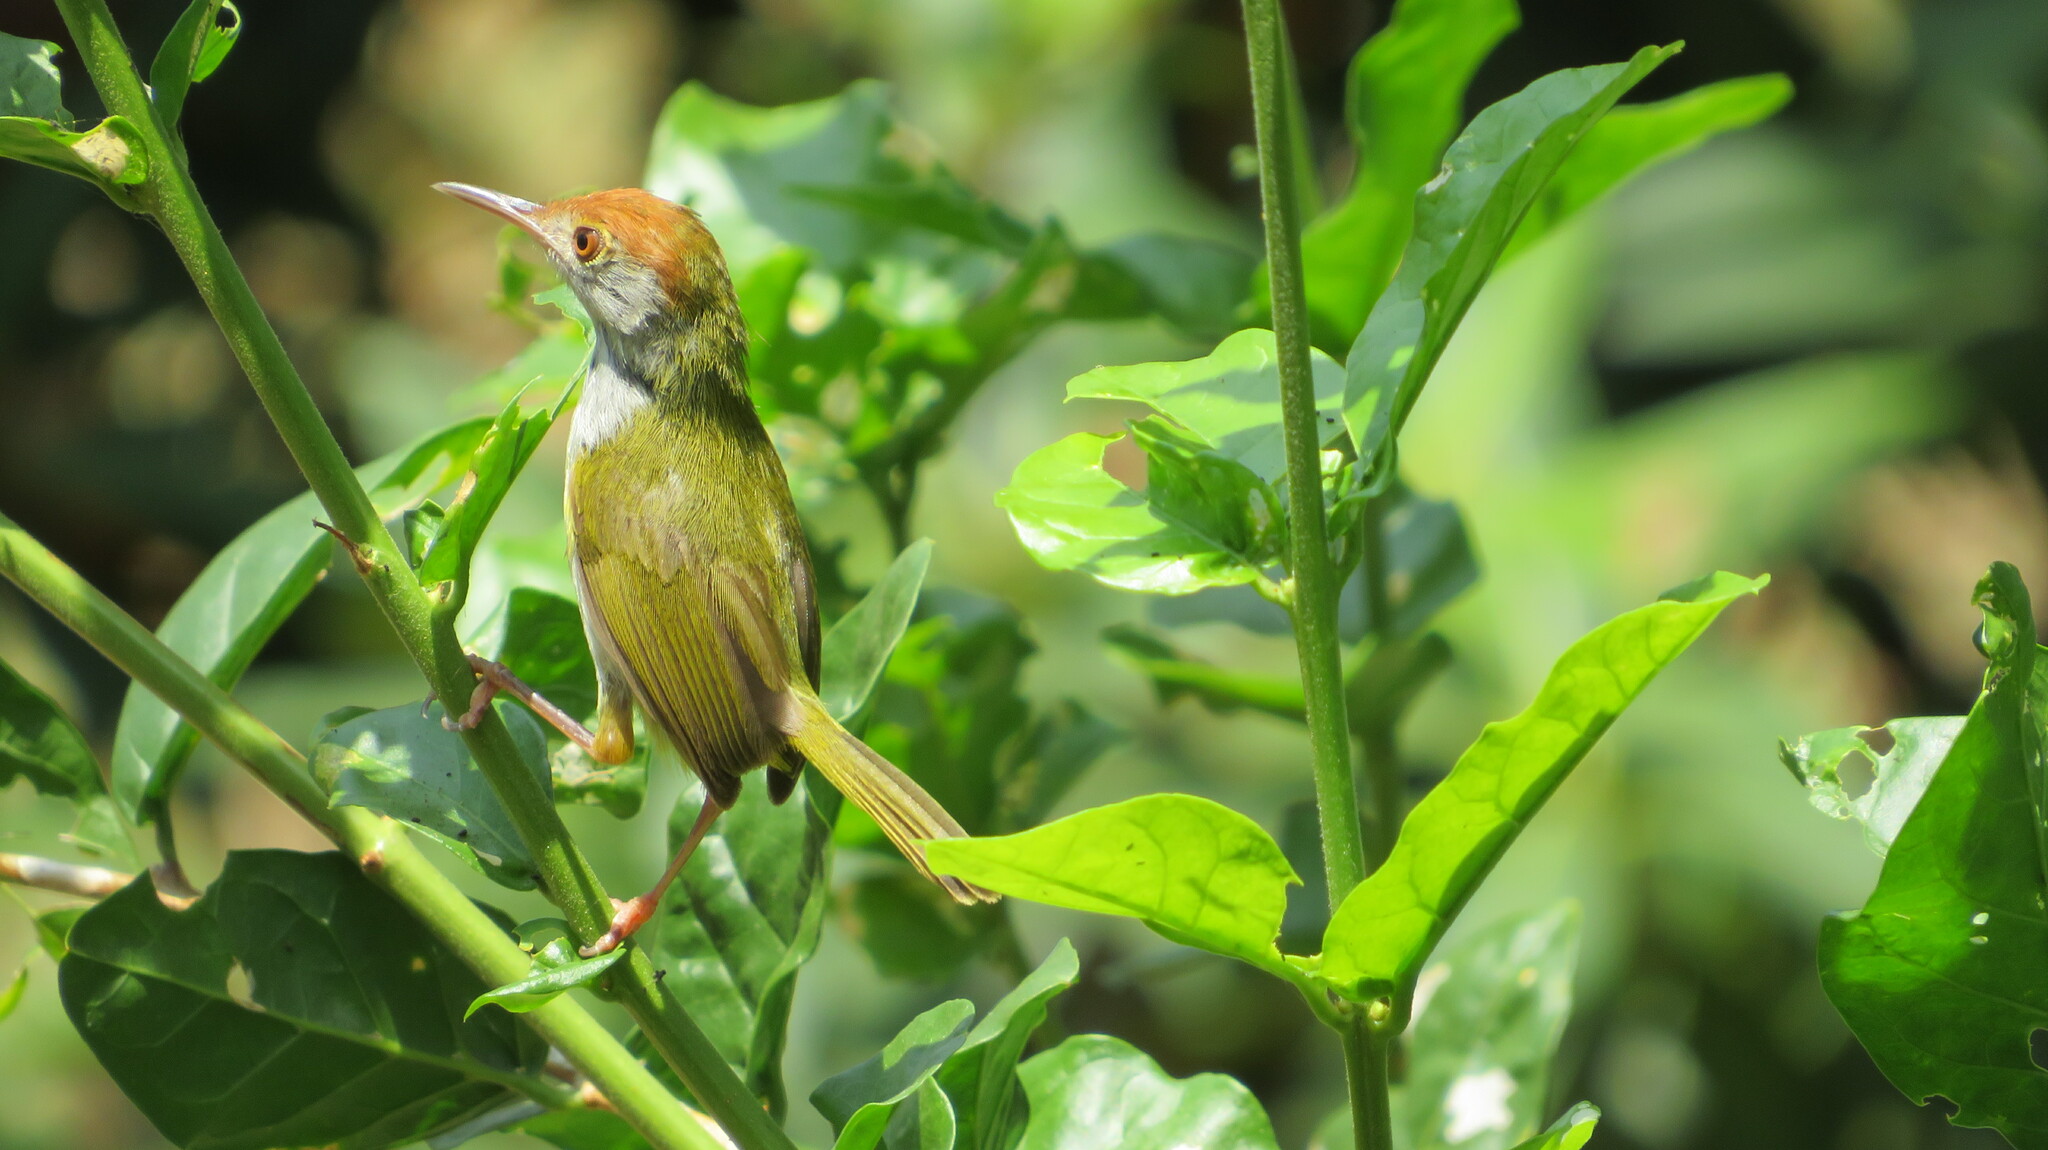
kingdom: Animalia
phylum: Chordata
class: Aves
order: Passeriformes
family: Cisticolidae
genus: Orthotomus
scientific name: Orthotomus sutorius
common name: Common tailorbird
